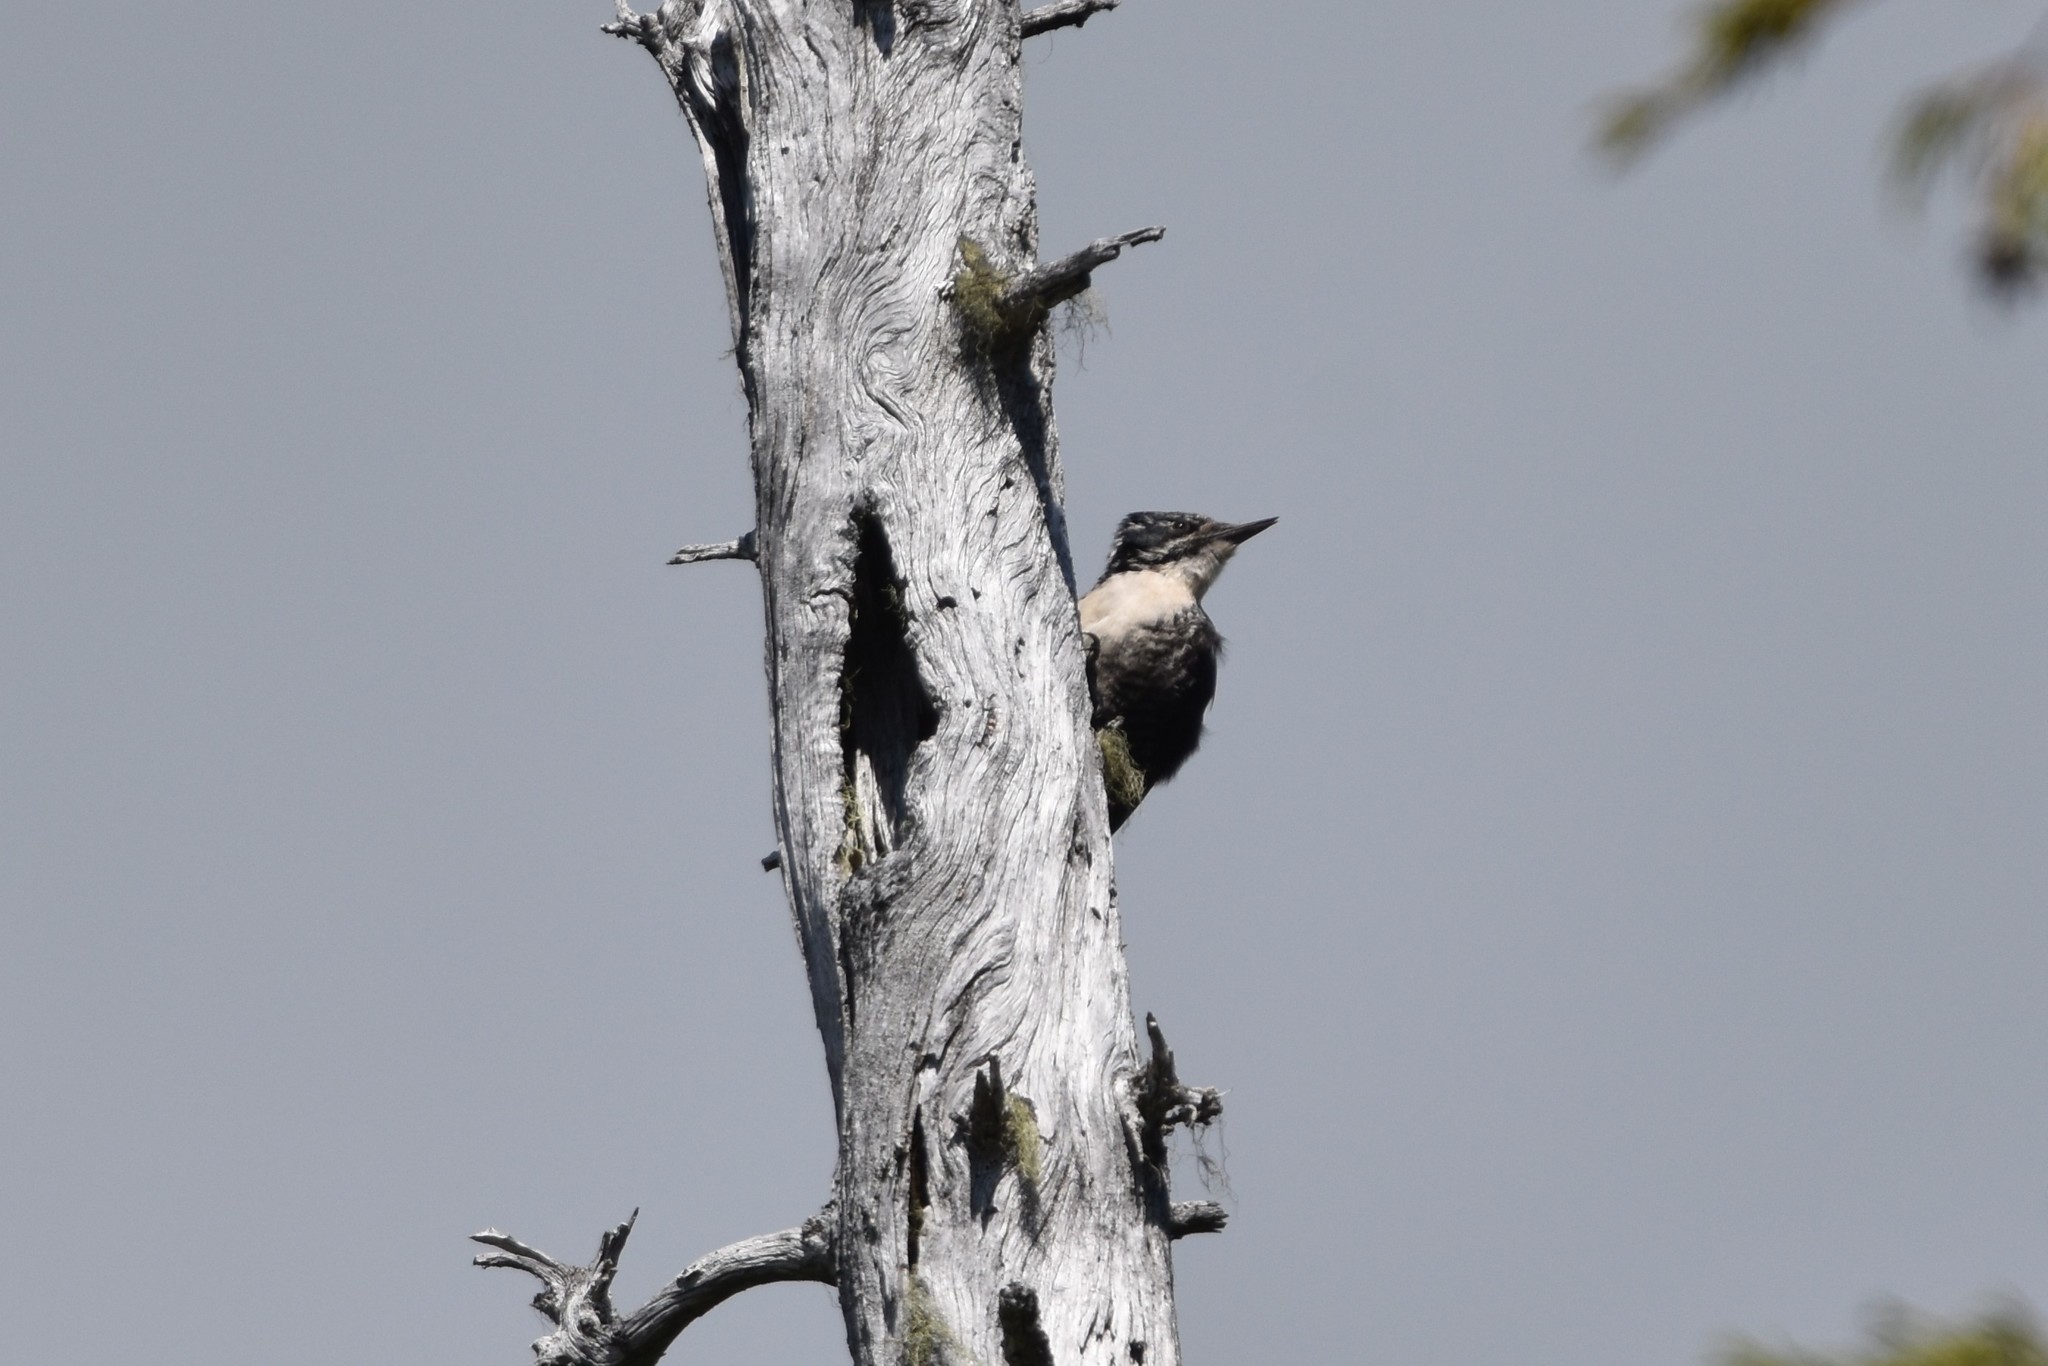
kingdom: Animalia
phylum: Chordata
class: Aves
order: Piciformes
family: Picidae
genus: Picoides
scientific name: Picoides dorsalis
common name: American three-toed woodpecker
